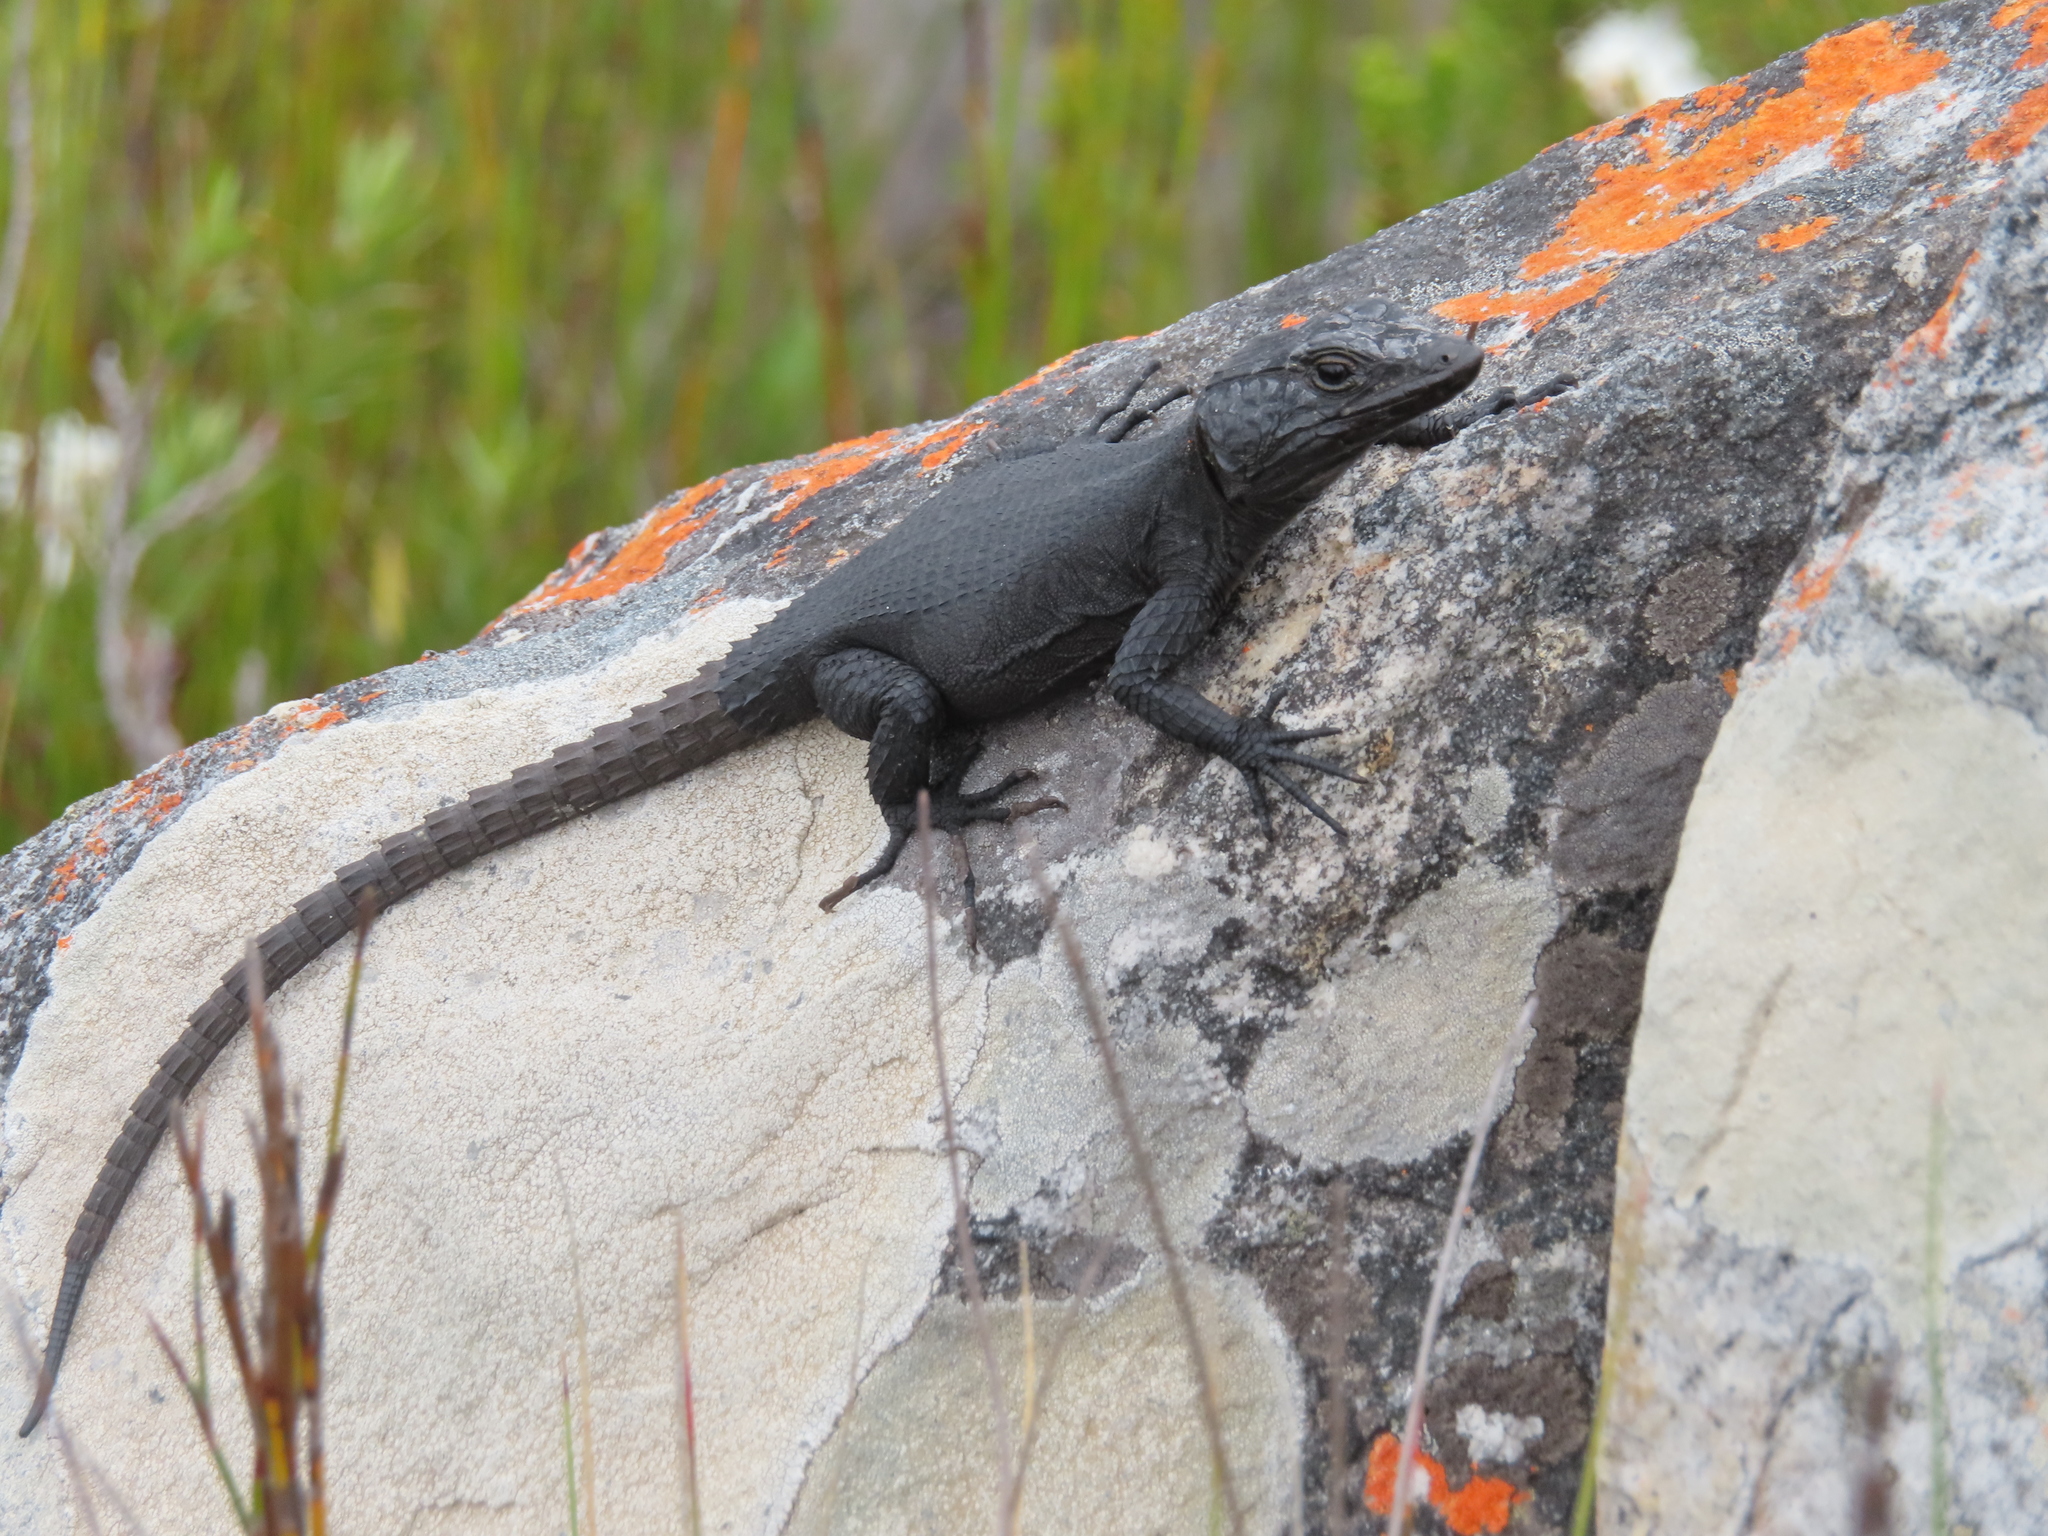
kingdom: Animalia
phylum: Chordata
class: Squamata
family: Cordylidae
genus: Hemicordylus
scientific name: Hemicordylus capensis
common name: Graceful crag lizard
